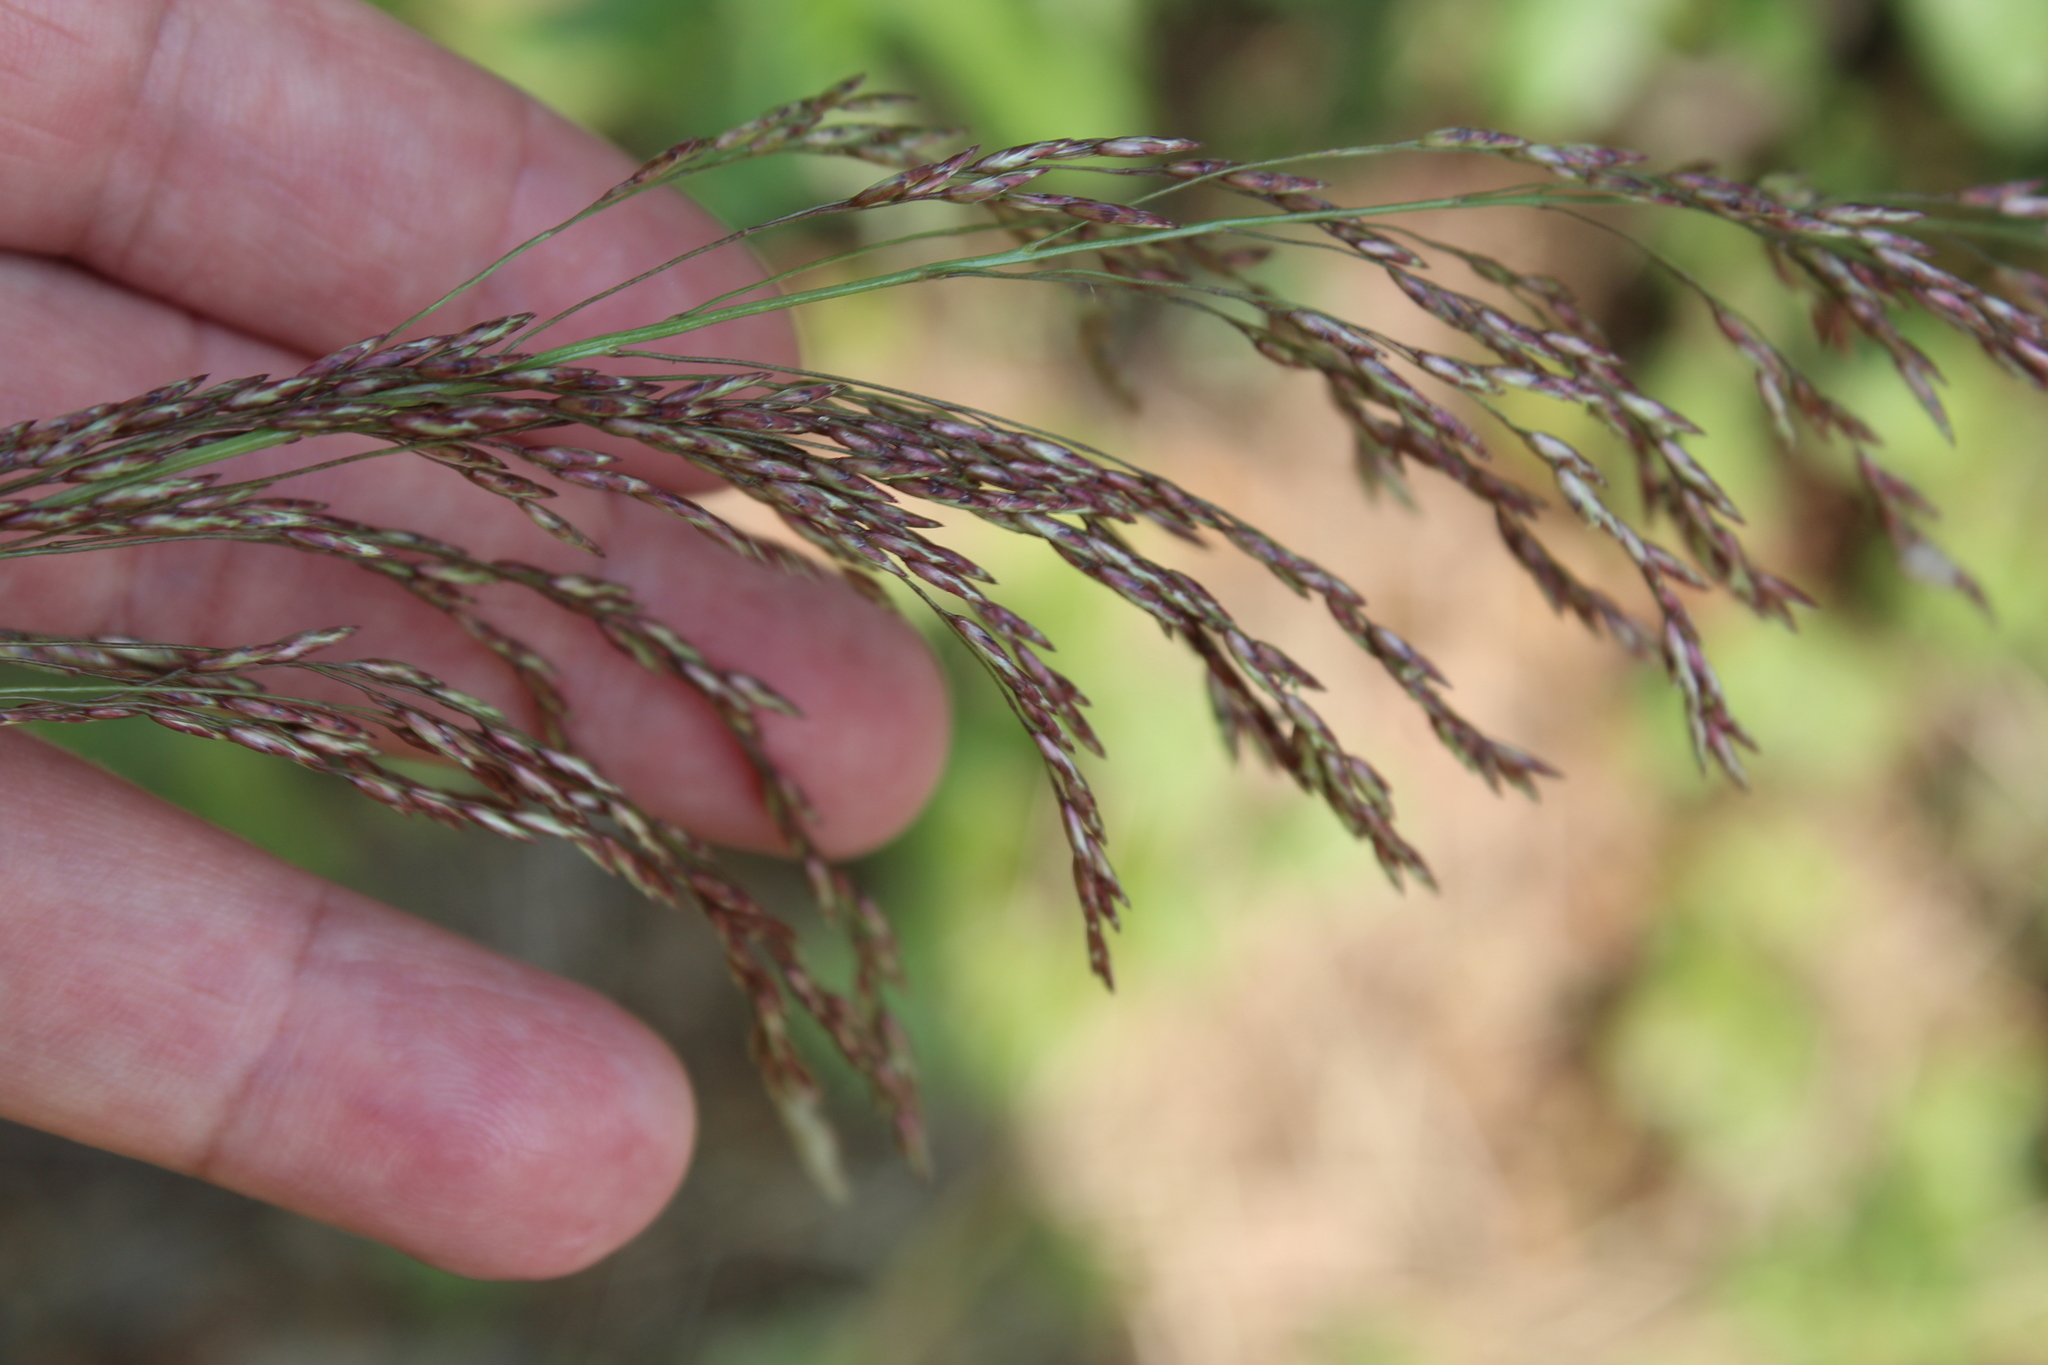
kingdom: Plantae
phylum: Tracheophyta
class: Liliopsida
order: Poales
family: Poaceae
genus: Tridens
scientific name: Tridens flavus
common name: Purpletop
